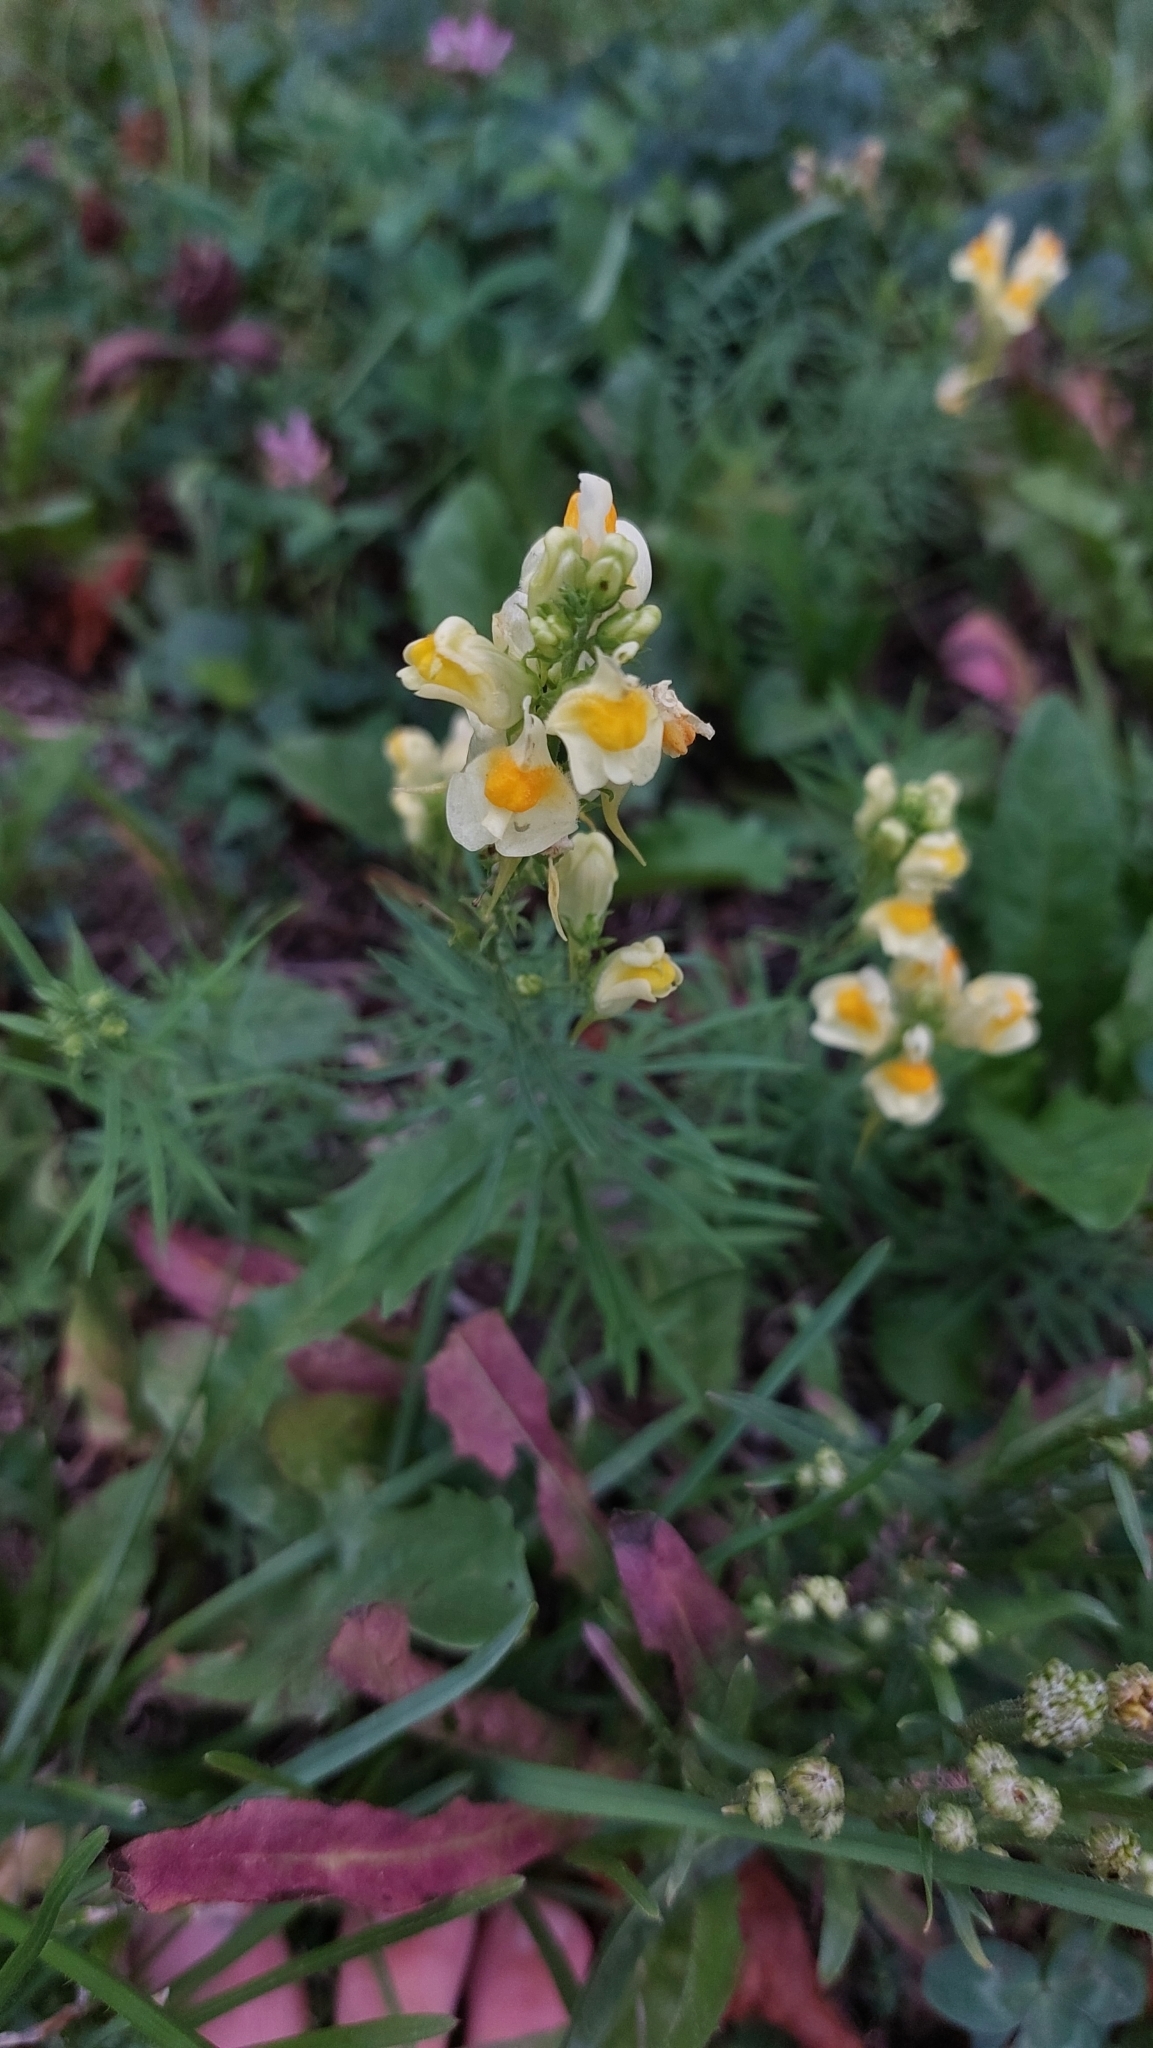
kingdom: Plantae
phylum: Tracheophyta
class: Magnoliopsida
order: Lamiales
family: Plantaginaceae
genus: Linaria
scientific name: Linaria vulgaris
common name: Butter and eggs
